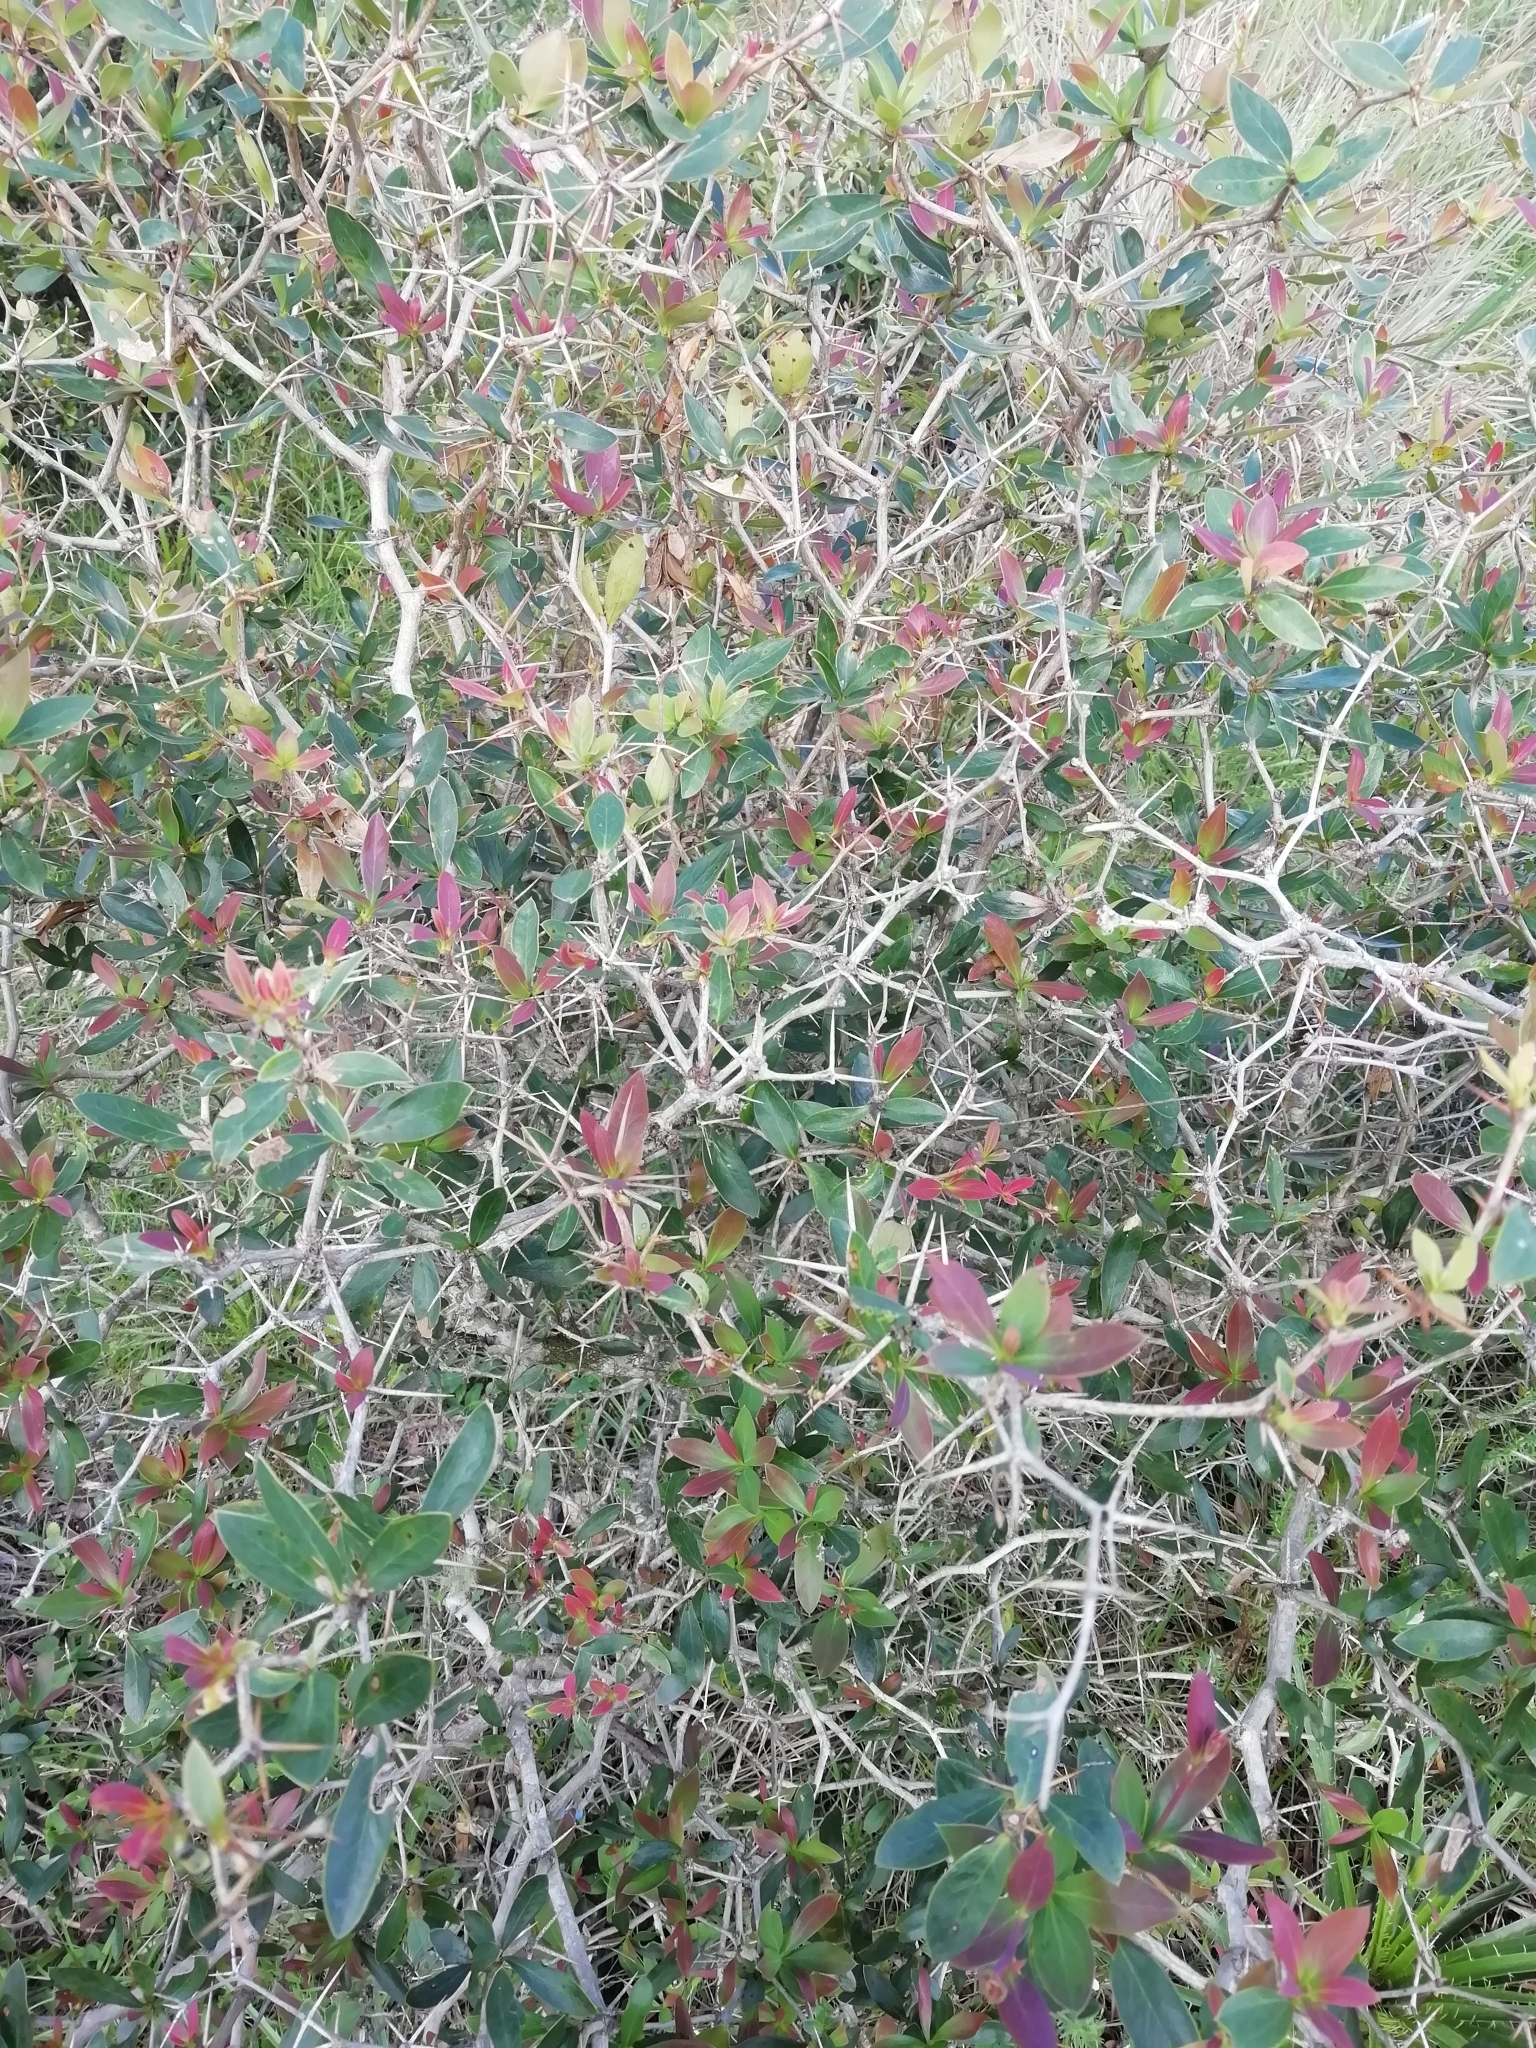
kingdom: Plantae
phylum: Tracheophyta
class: Magnoliopsida
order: Ranunculales
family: Berberidaceae
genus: Berberis
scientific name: Berberis laurina
